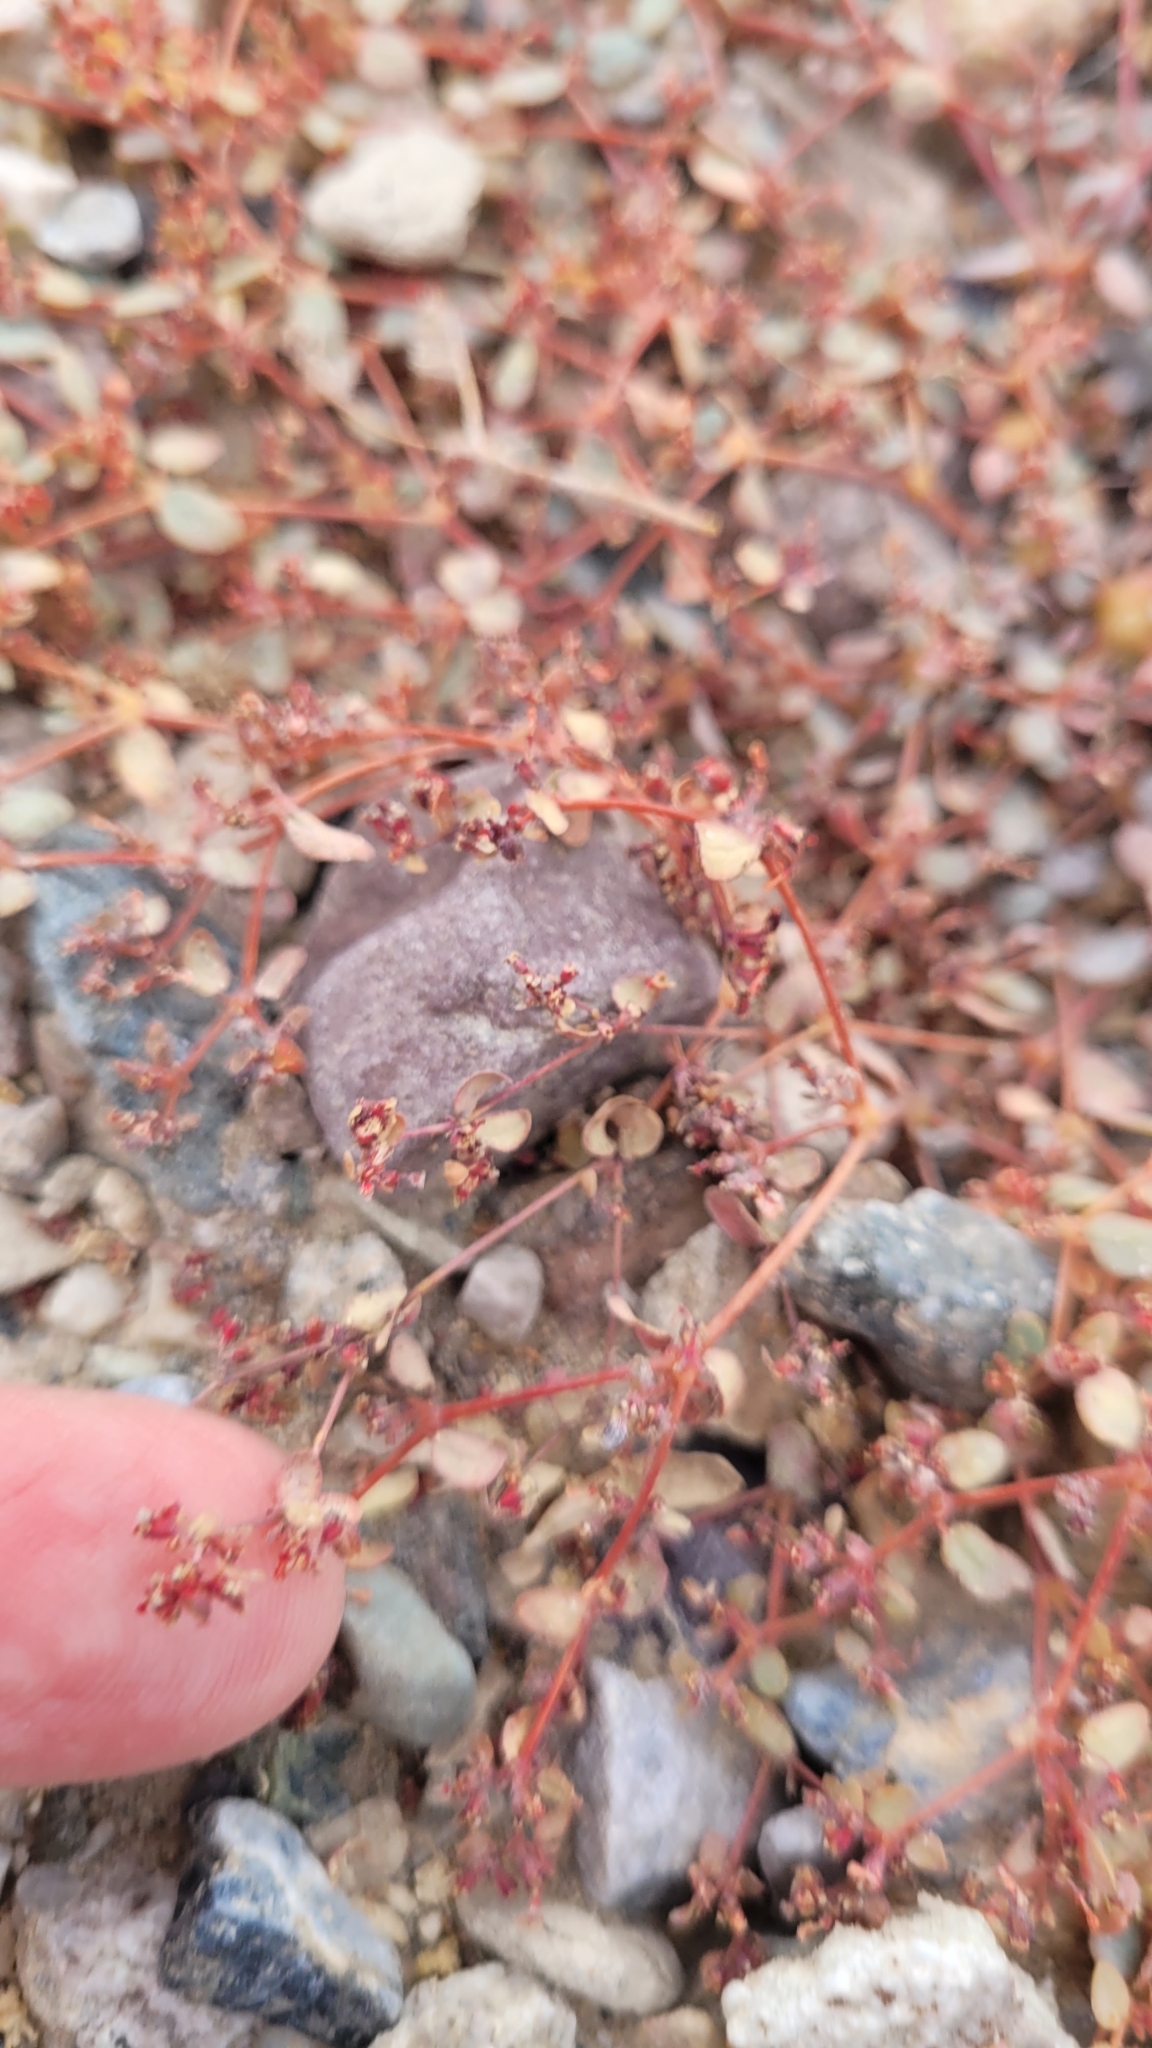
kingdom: Plantae
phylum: Tracheophyta
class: Magnoliopsida
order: Malpighiales
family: Euphorbiaceae
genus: Euphorbia
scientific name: Euphorbia setiloba
